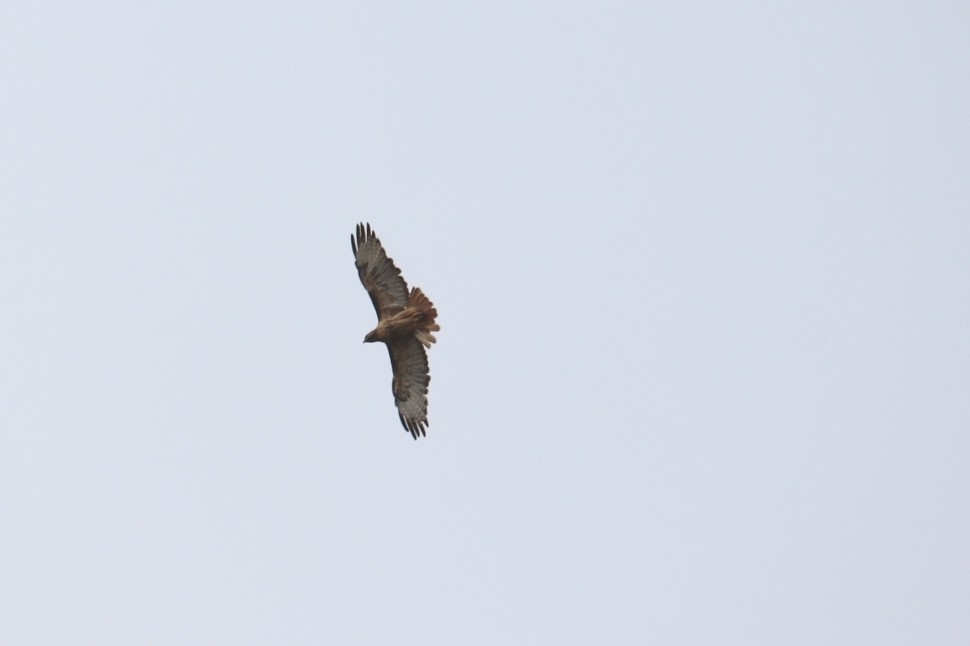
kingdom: Animalia
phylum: Chordata
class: Aves
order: Accipitriformes
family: Accipitridae
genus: Buteo
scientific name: Buteo jamaicensis
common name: Red-tailed hawk
